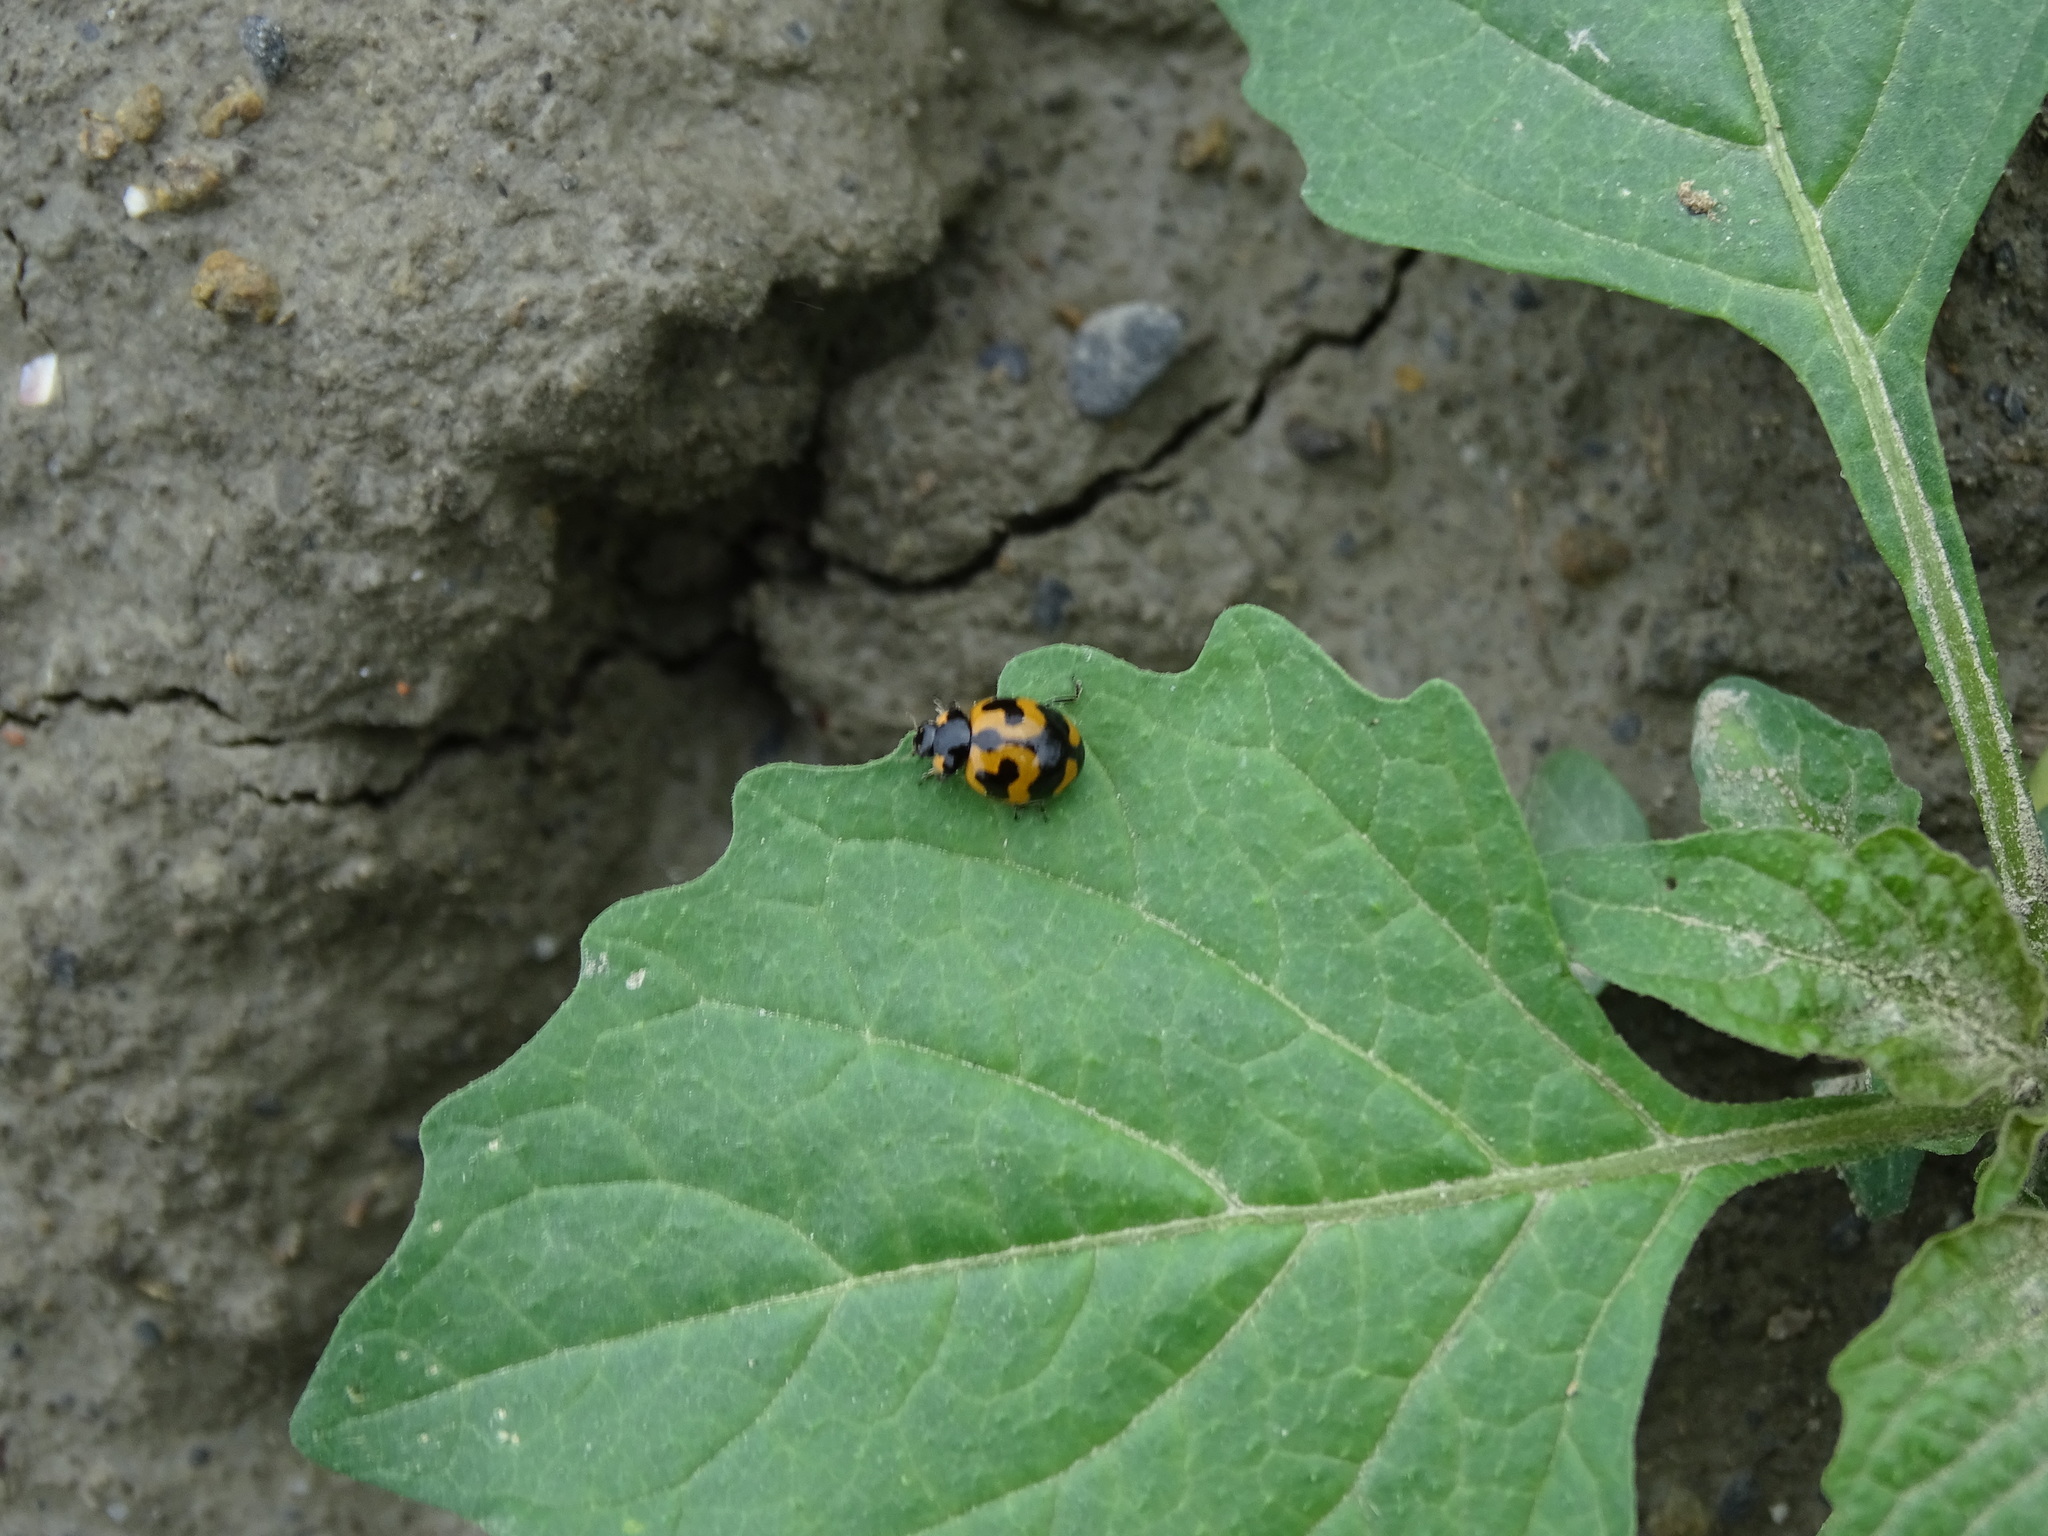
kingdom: Animalia
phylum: Arthropoda
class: Insecta
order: Coleoptera
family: Coccinellidae
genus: Coccinella
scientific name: Coccinella transversalis
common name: Transverse lady beetle
